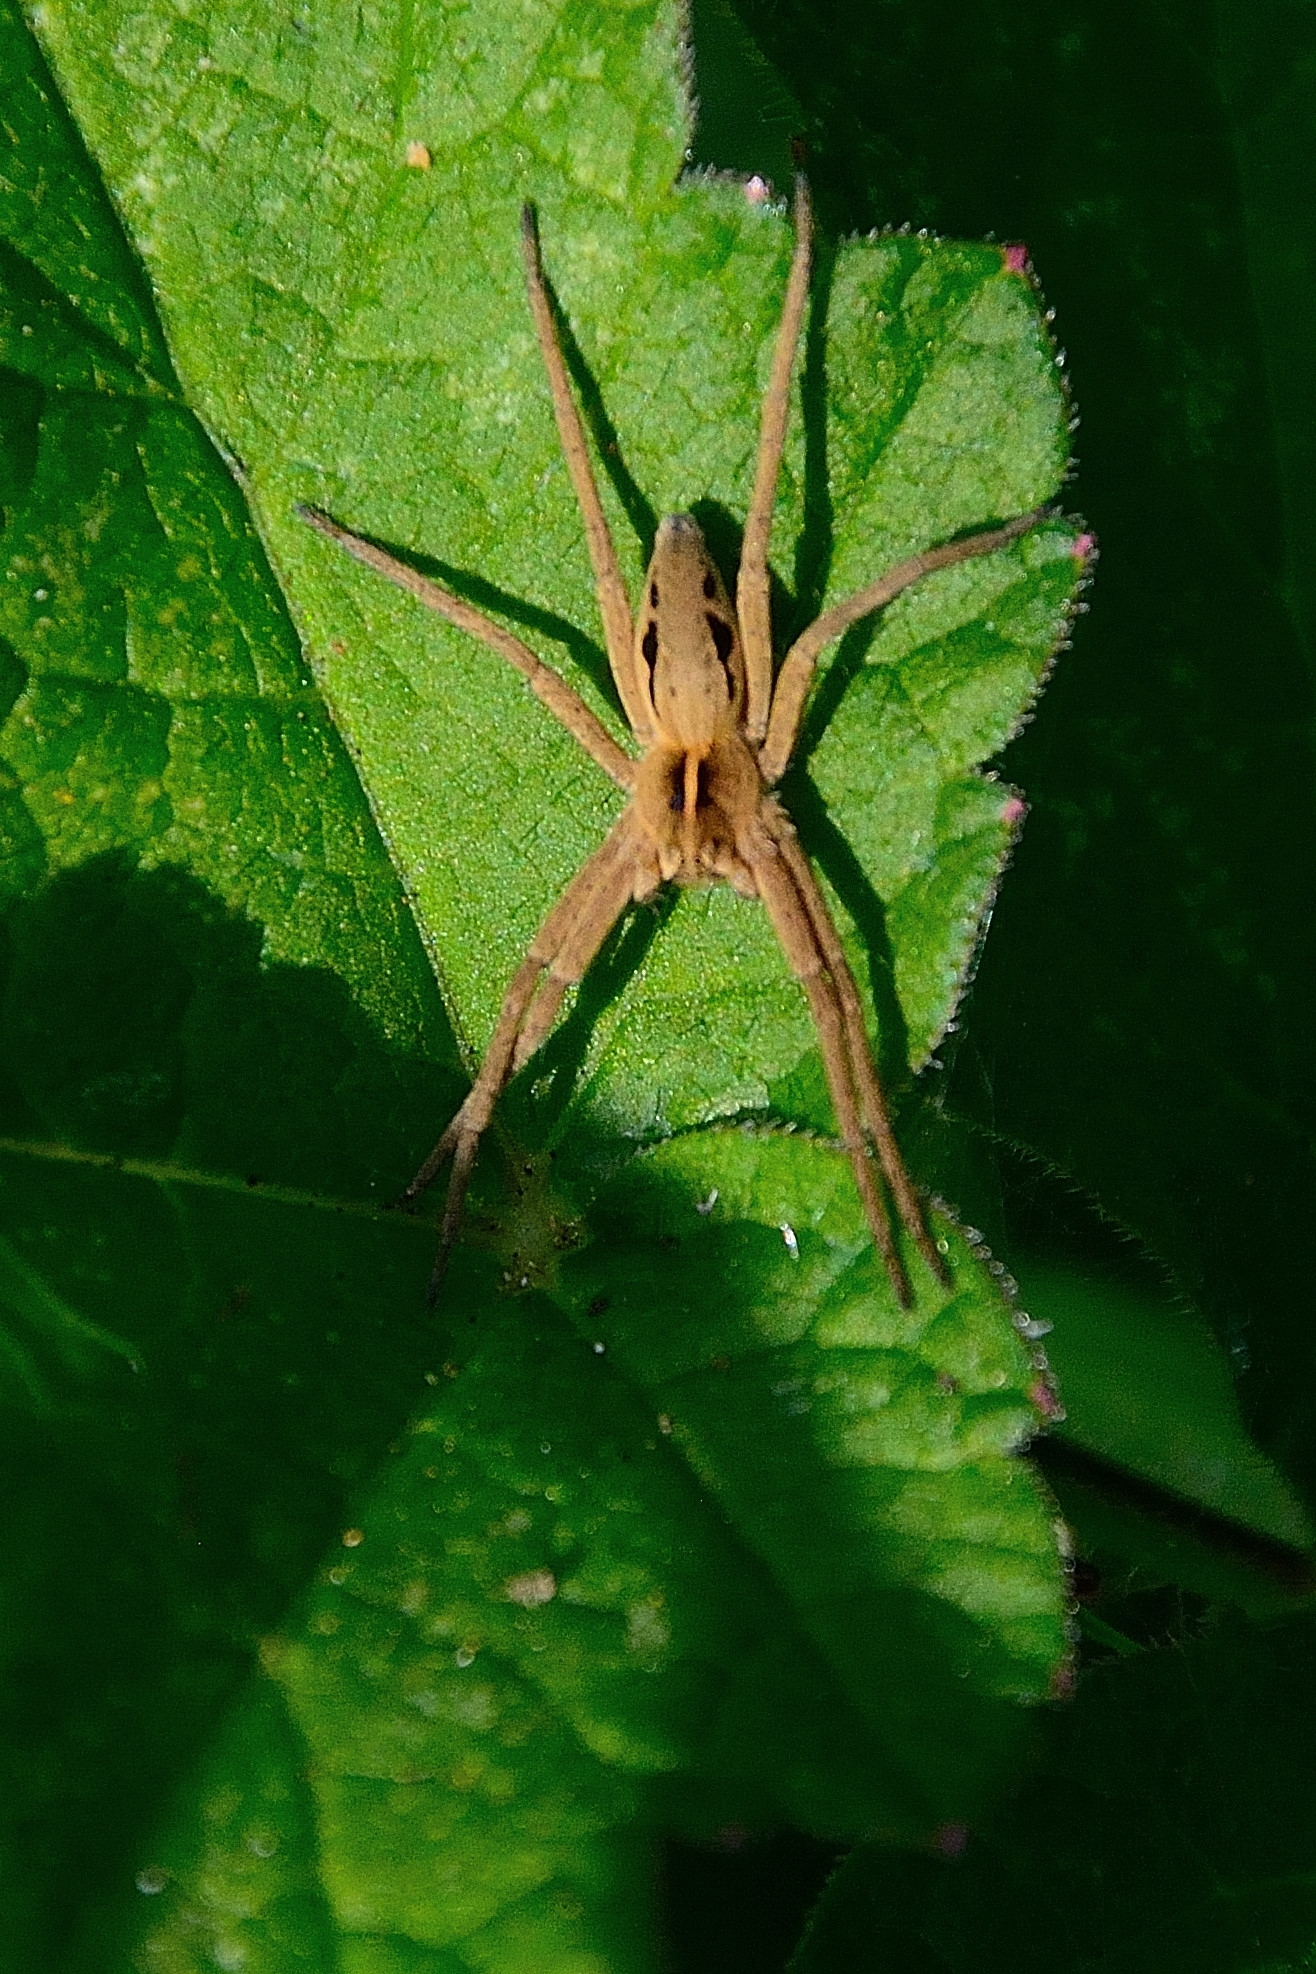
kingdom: Animalia
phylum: Arthropoda
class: Arachnida
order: Araneae
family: Pisauridae
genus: Pisaura
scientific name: Pisaura mirabilis
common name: Tent spider
